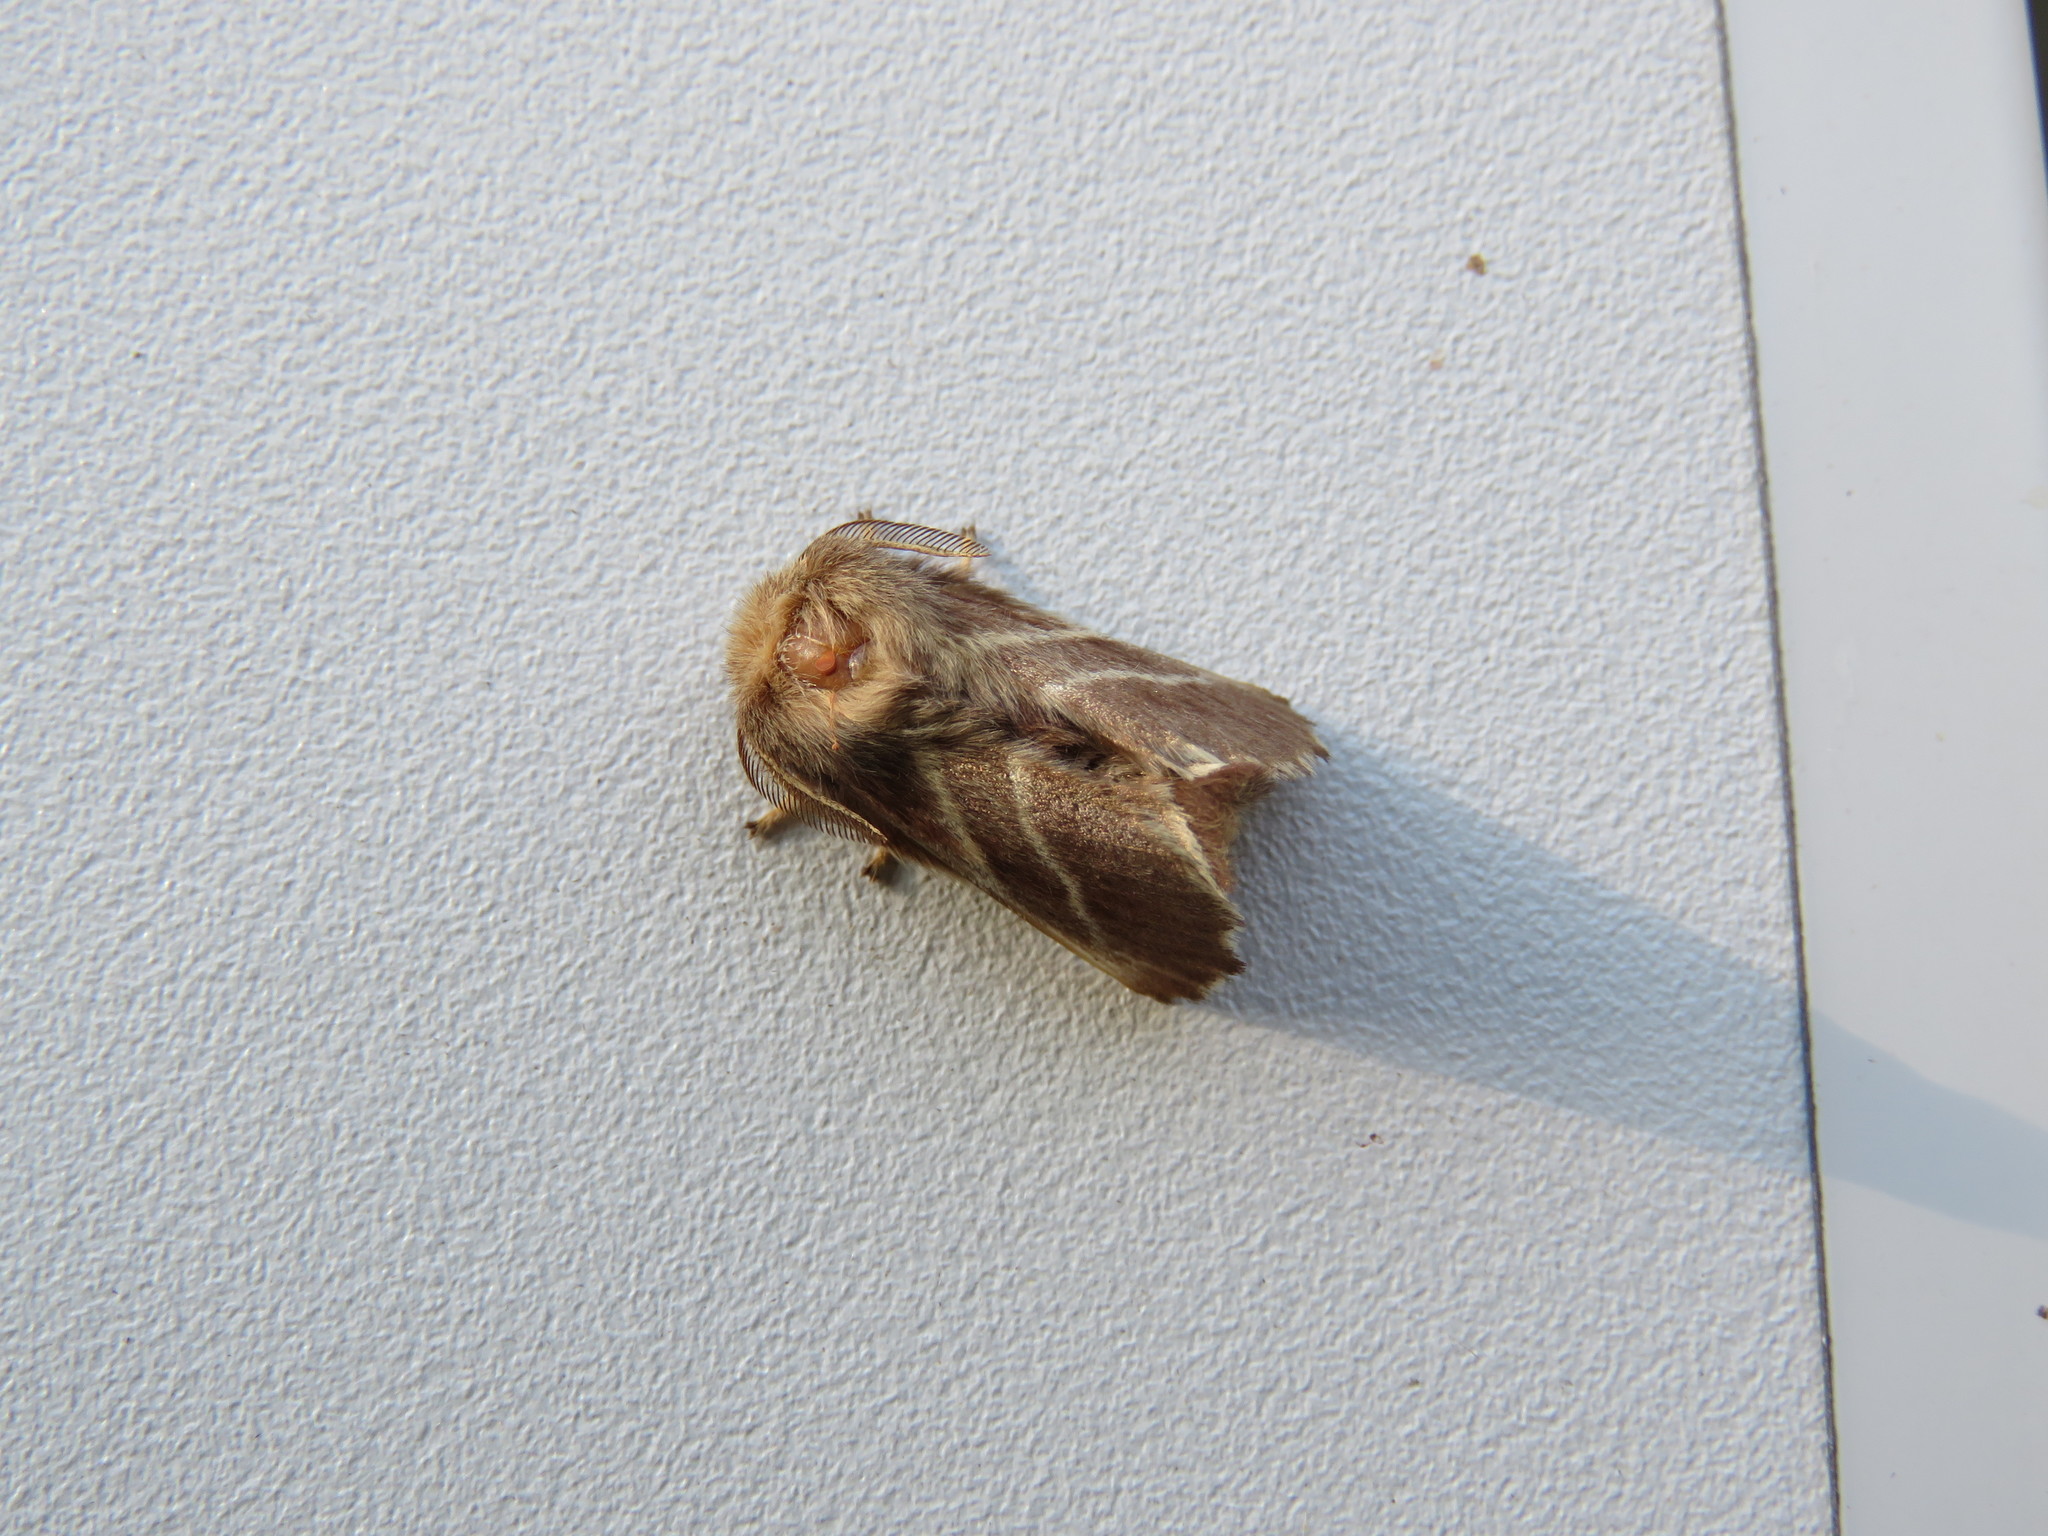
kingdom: Animalia
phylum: Arthropoda
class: Insecta
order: Lepidoptera
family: Lasiocampidae
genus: Malacosoma
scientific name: Malacosoma americana
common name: Eastern tent caterpillar moth
